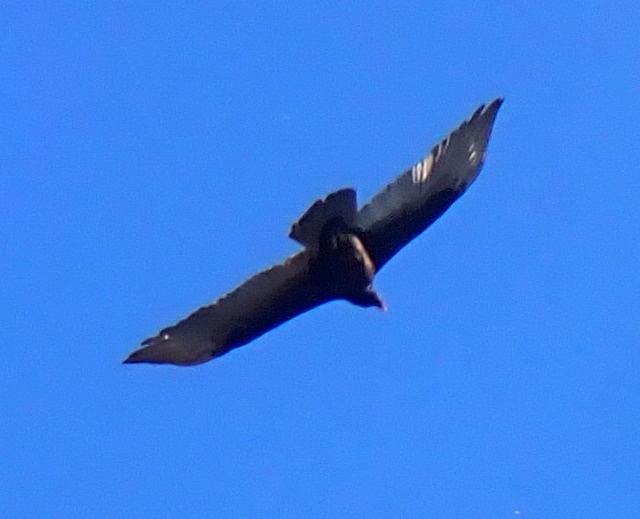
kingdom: Animalia
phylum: Chordata
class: Aves
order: Accipitriformes
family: Cathartidae
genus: Cathartes
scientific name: Cathartes aura
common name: Turkey vulture
